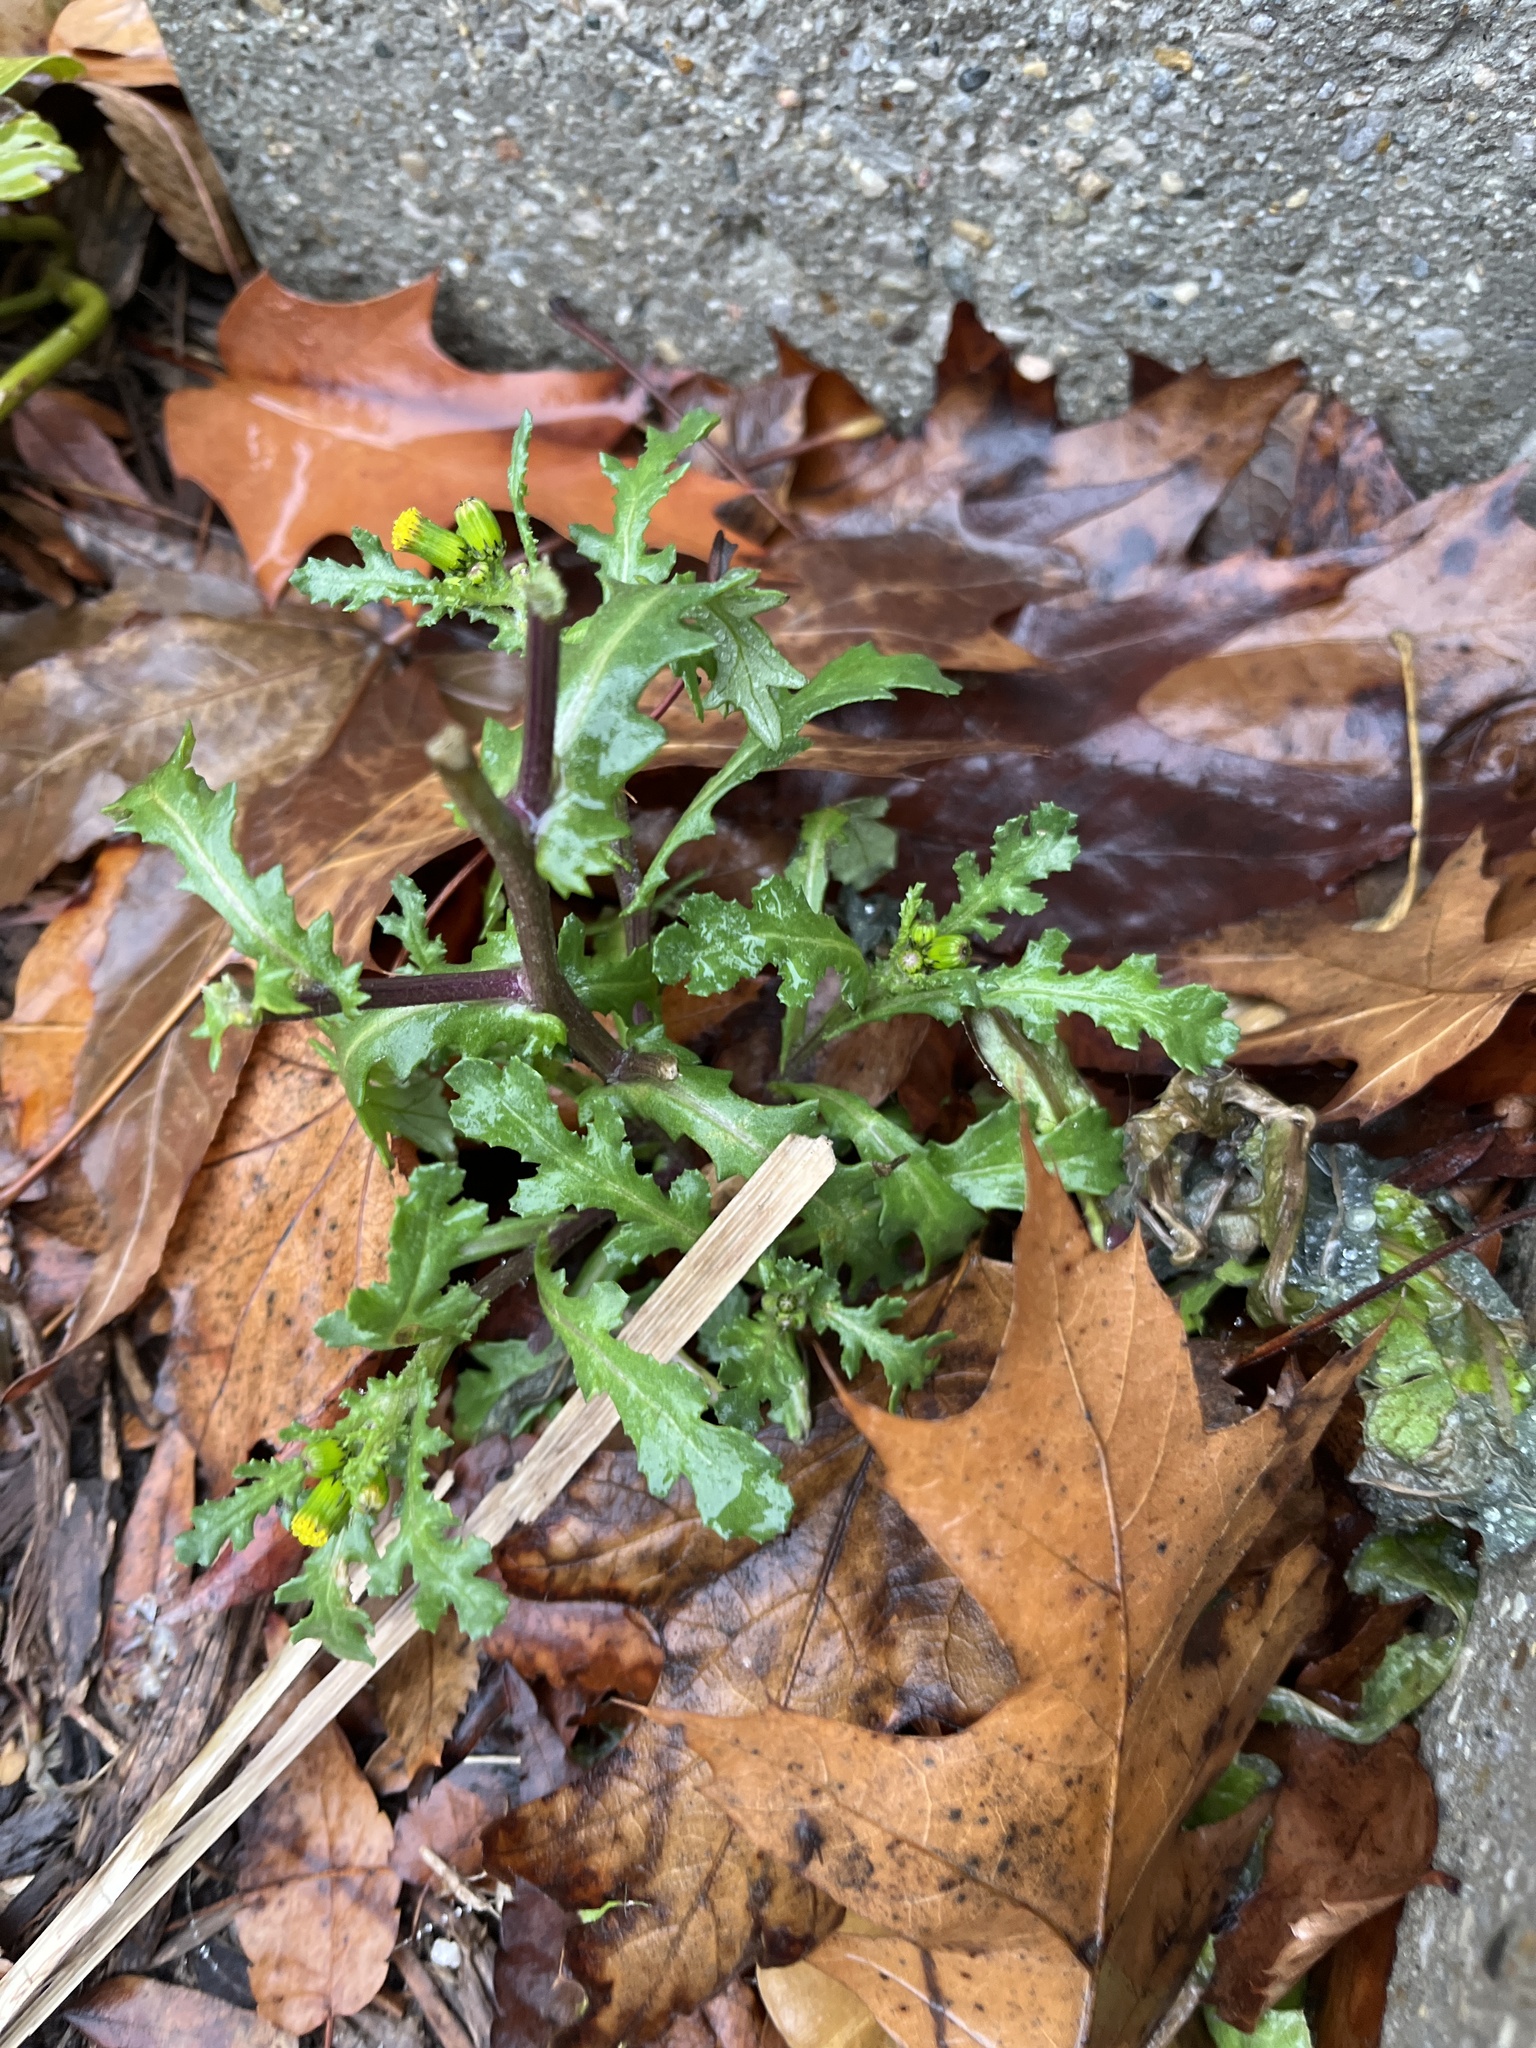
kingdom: Plantae
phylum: Tracheophyta
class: Magnoliopsida
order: Asterales
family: Asteraceae
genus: Senecio
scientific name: Senecio vulgaris
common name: Old-man-in-the-spring
